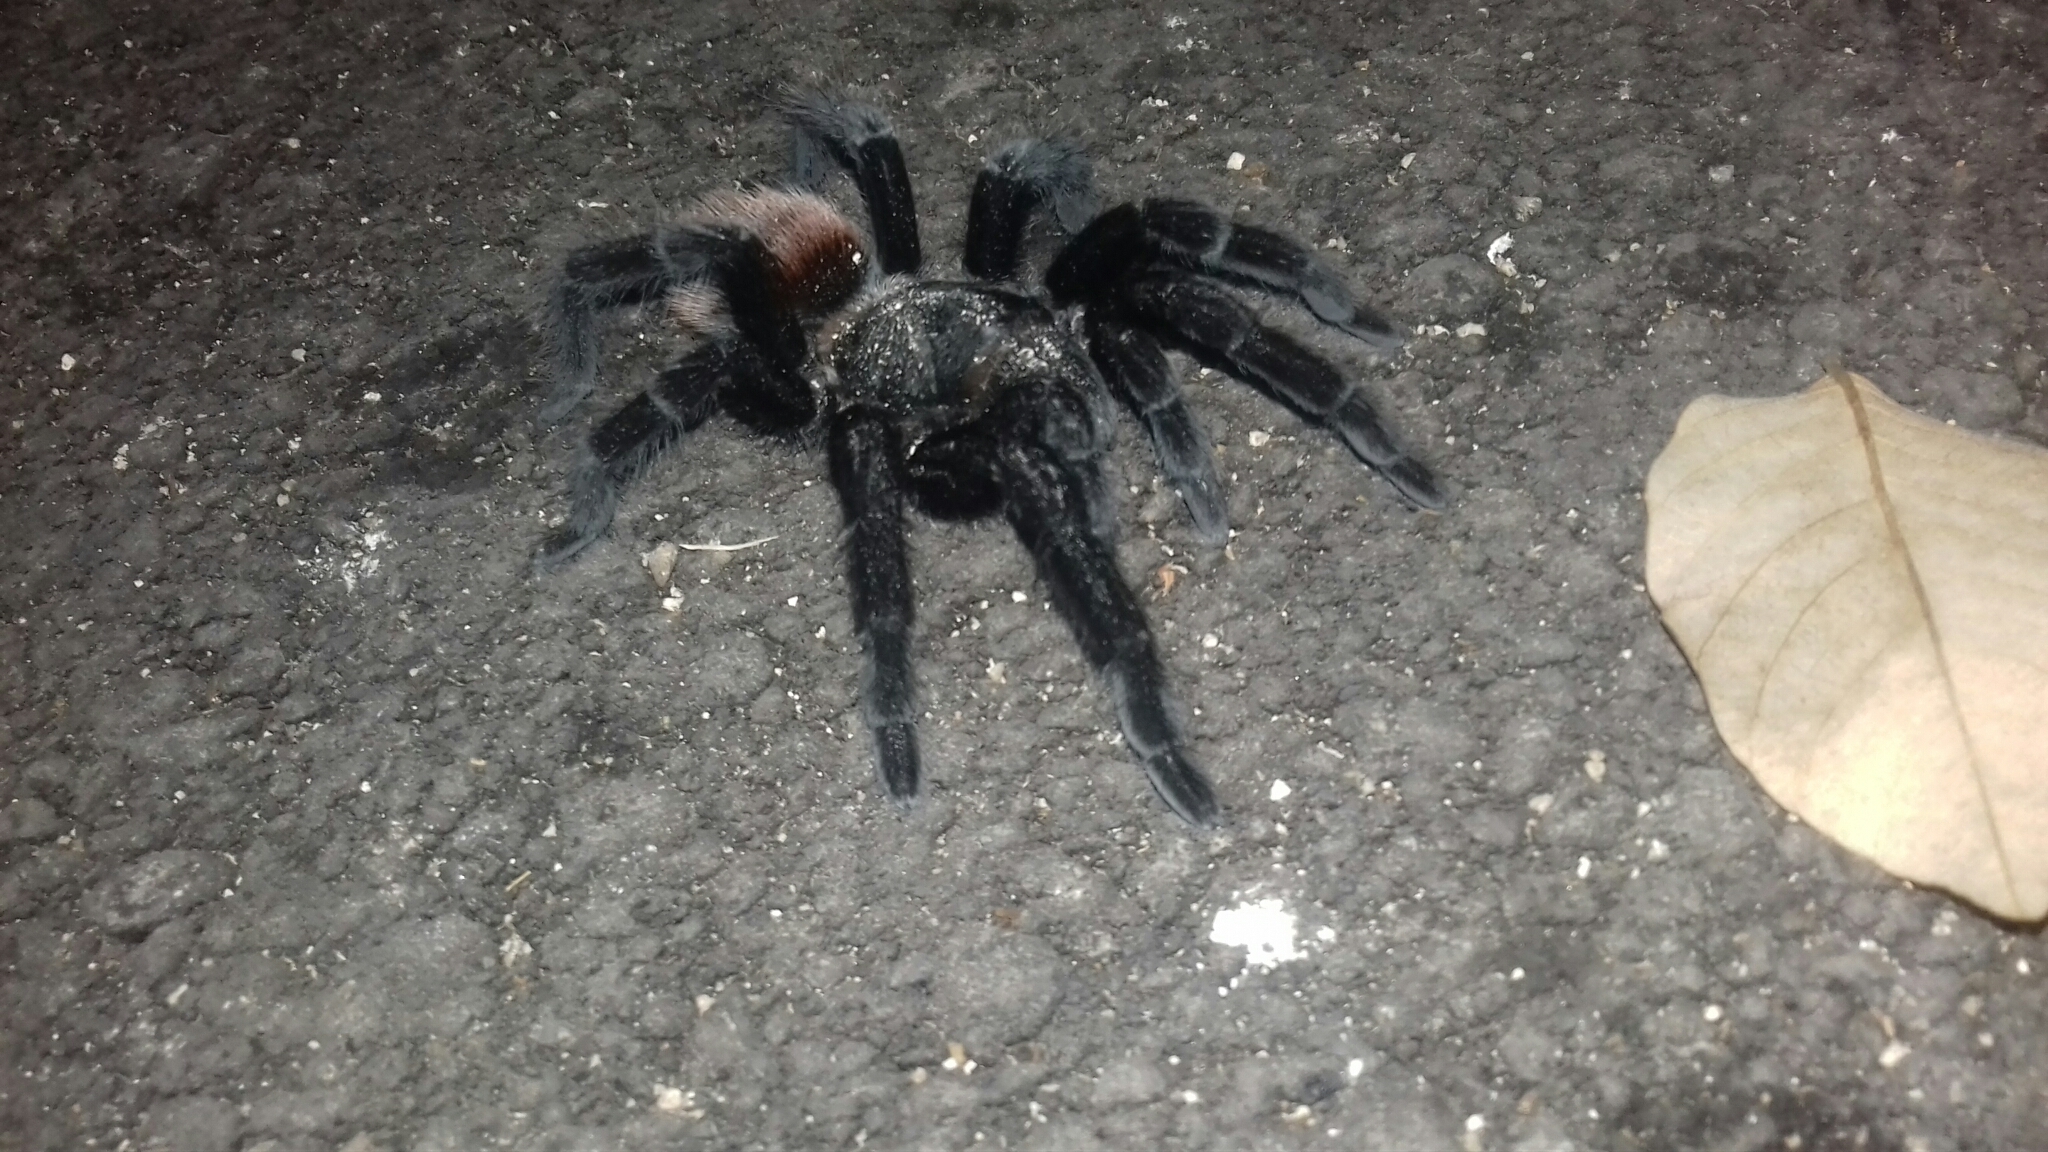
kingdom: Animalia
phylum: Arthropoda
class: Arachnida
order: Araneae
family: Theraphosidae
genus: Tliltocatl
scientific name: Tliltocatl vagans
